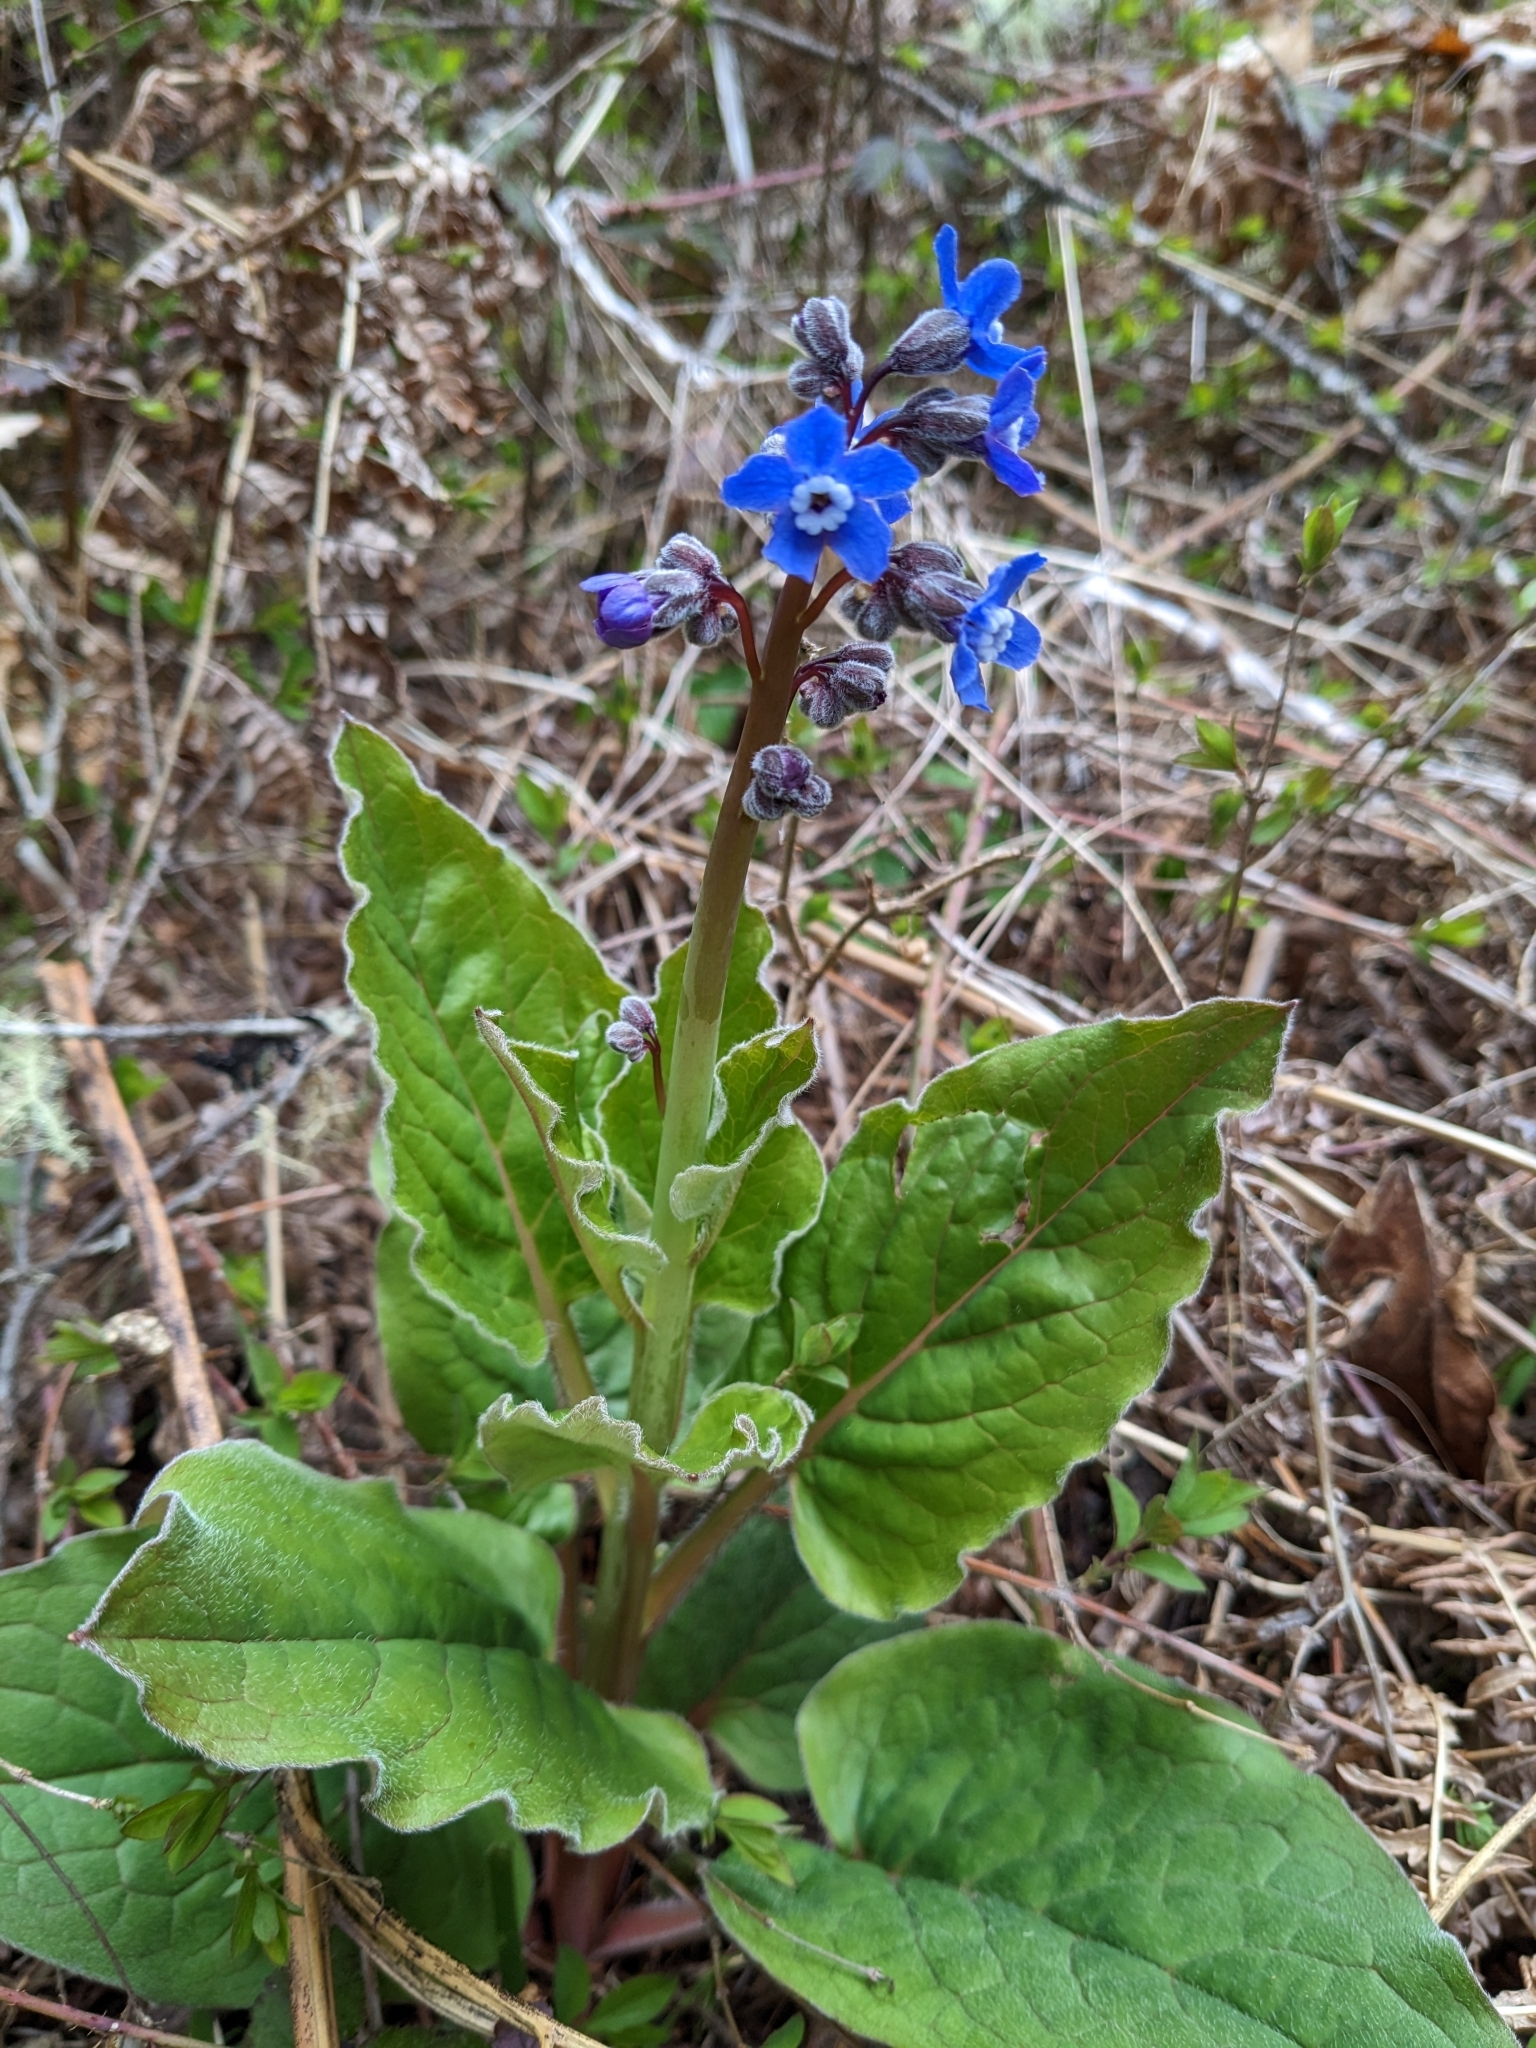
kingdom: Plantae
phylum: Tracheophyta
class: Magnoliopsida
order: Boraginales
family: Boraginaceae
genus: Adelinia
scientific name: Adelinia grande
